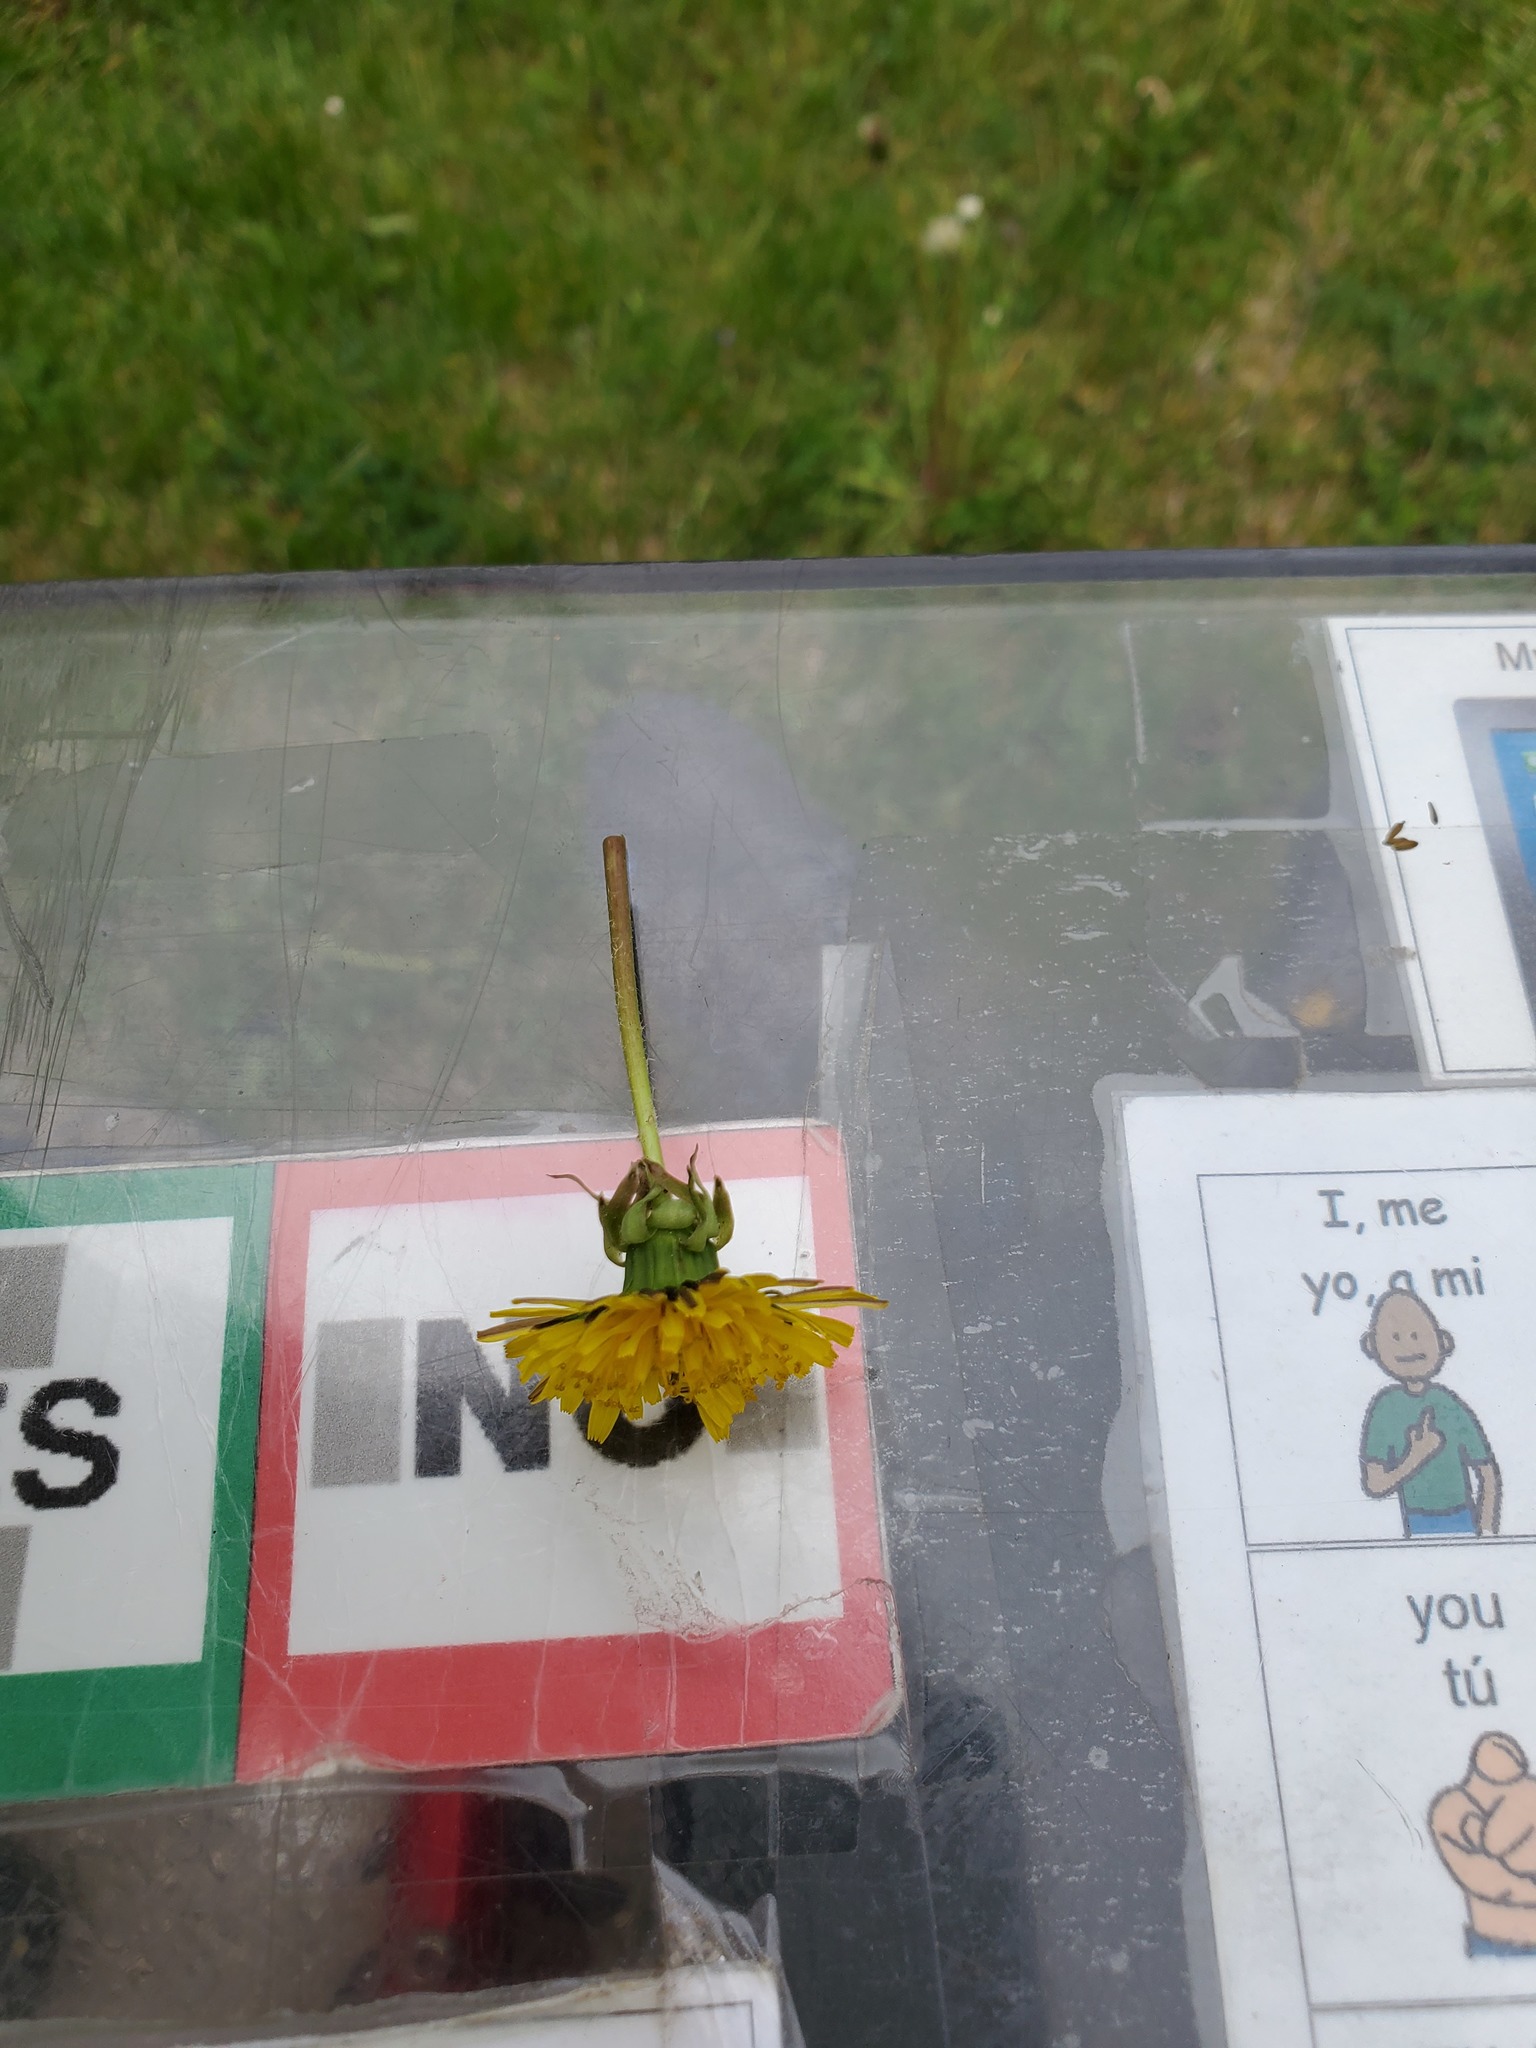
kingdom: Plantae
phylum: Tracheophyta
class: Magnoliopsida
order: Asterales
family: Asteraceae
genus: Taraxacum
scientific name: Taraxacum officinale
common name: Common dandelion
